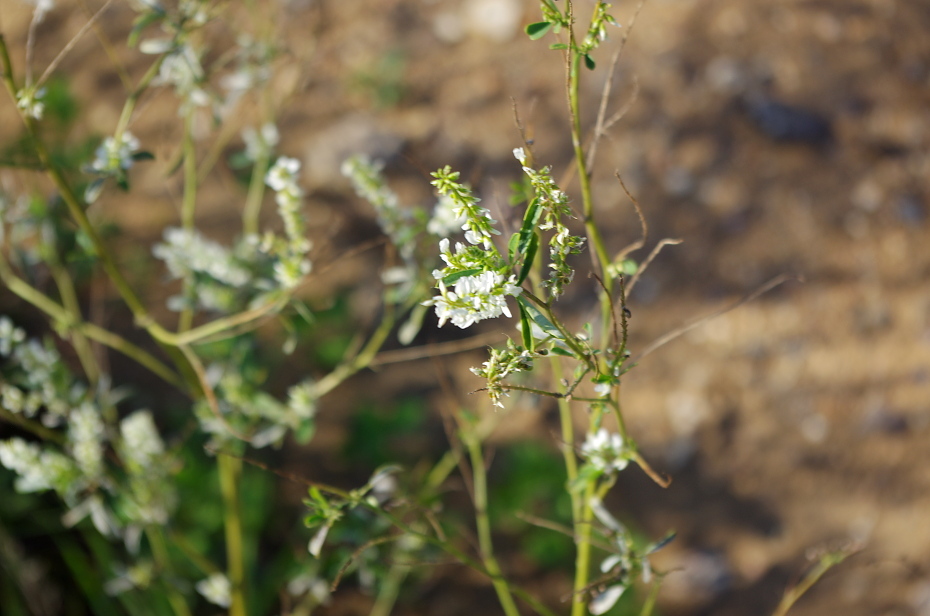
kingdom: Plantae
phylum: Tracheophyta
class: Magnoliopsida
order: Fabales
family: Fabaceae
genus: Melilotus
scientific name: Melilotus albus
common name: White melilot
